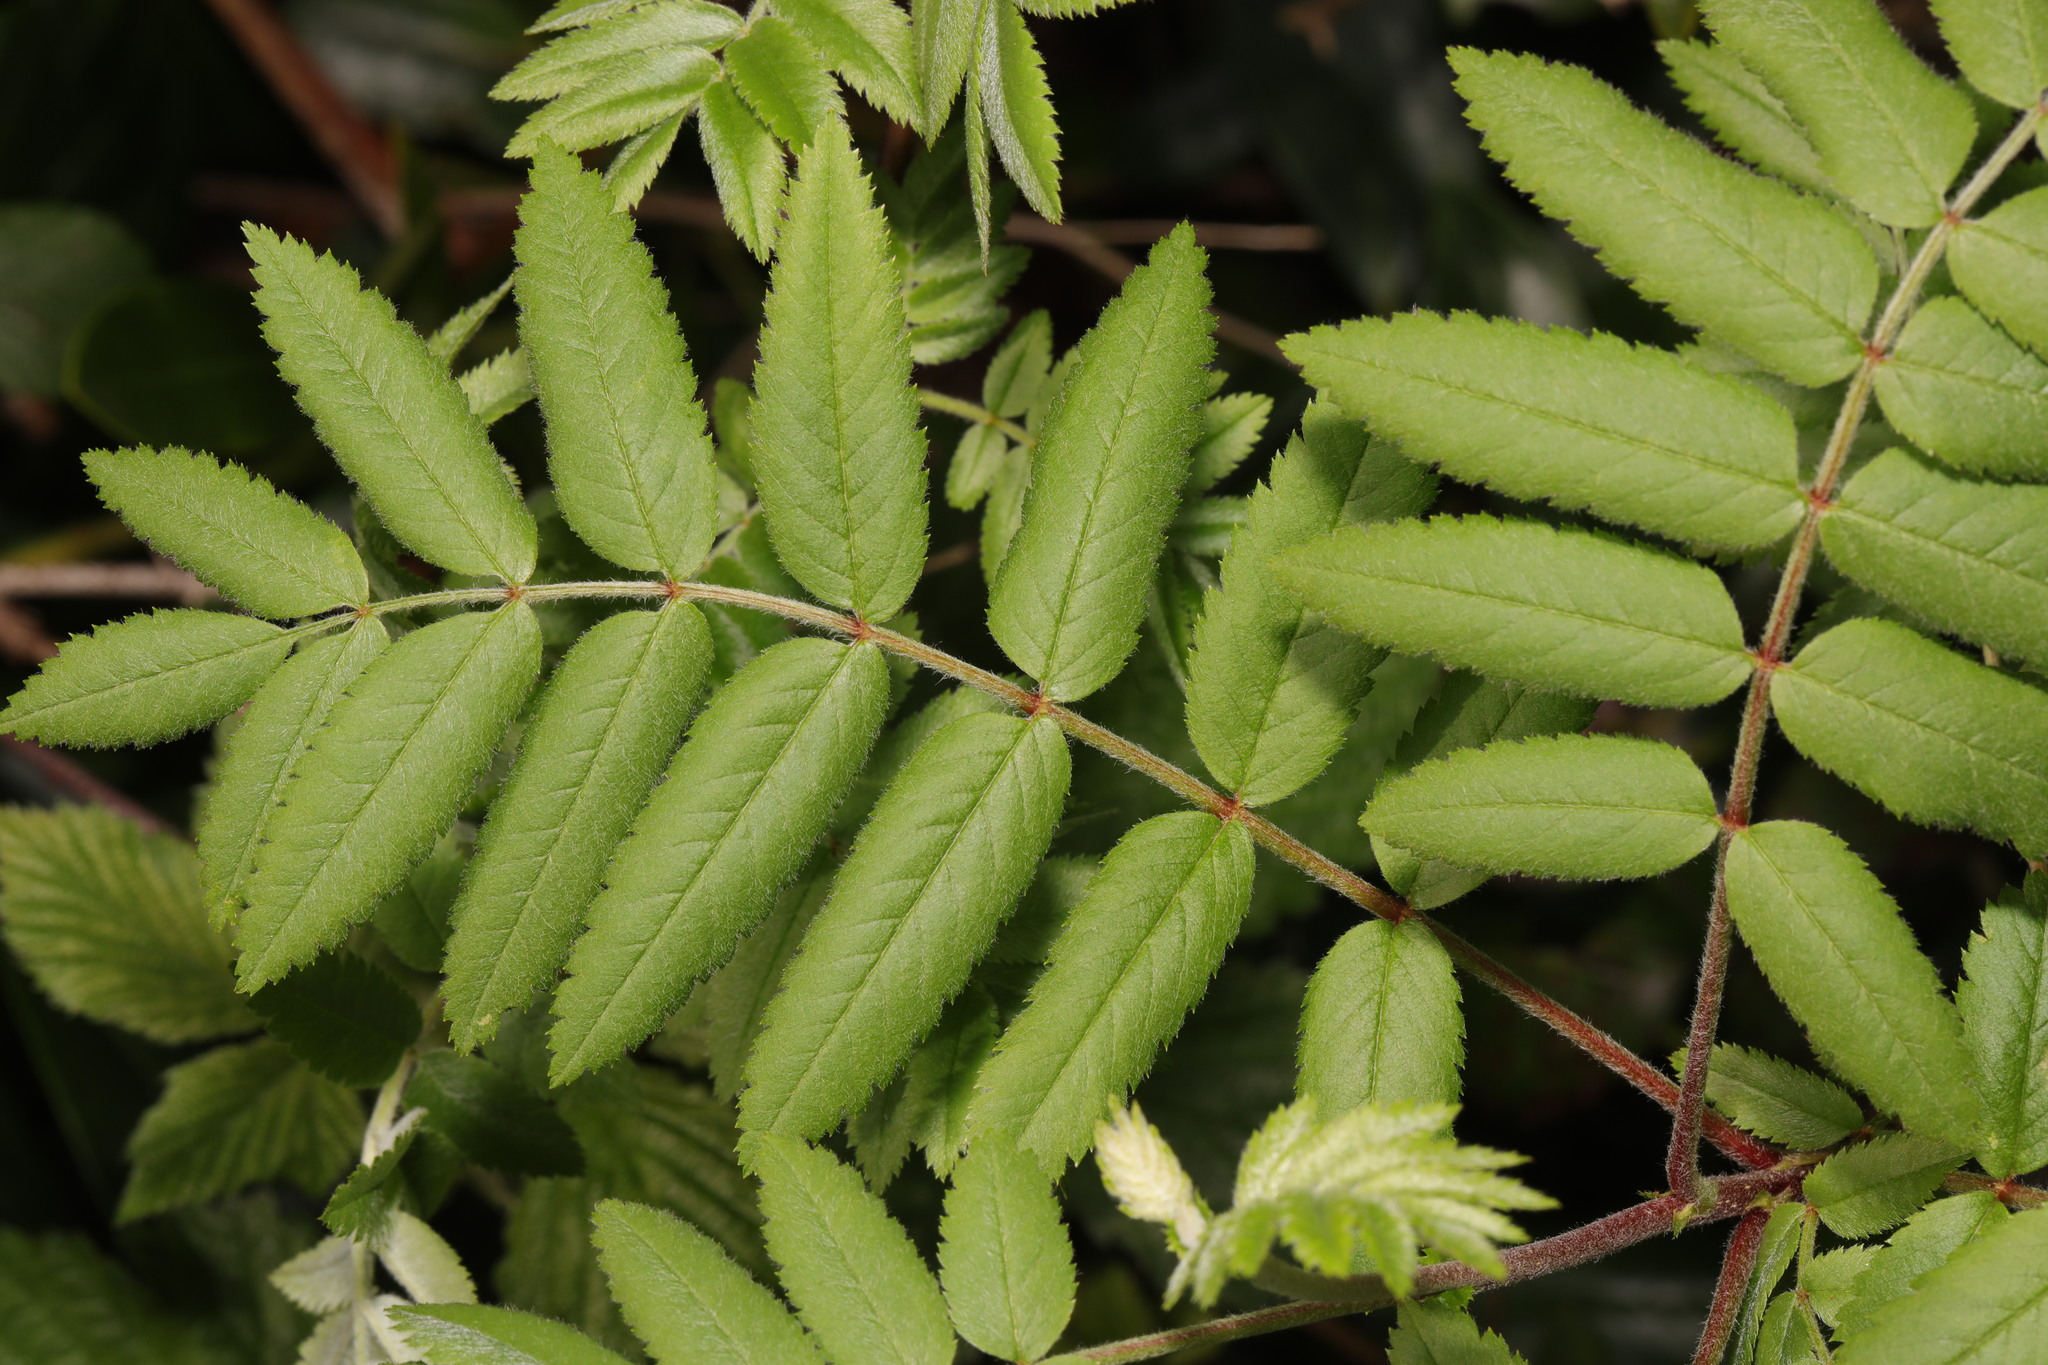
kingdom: Plantae
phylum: Tracheophyta
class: Magnoliopsida
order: Rosales
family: Rosaceae
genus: Sorbus
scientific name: Sorbus aucuparia
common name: Rowan
